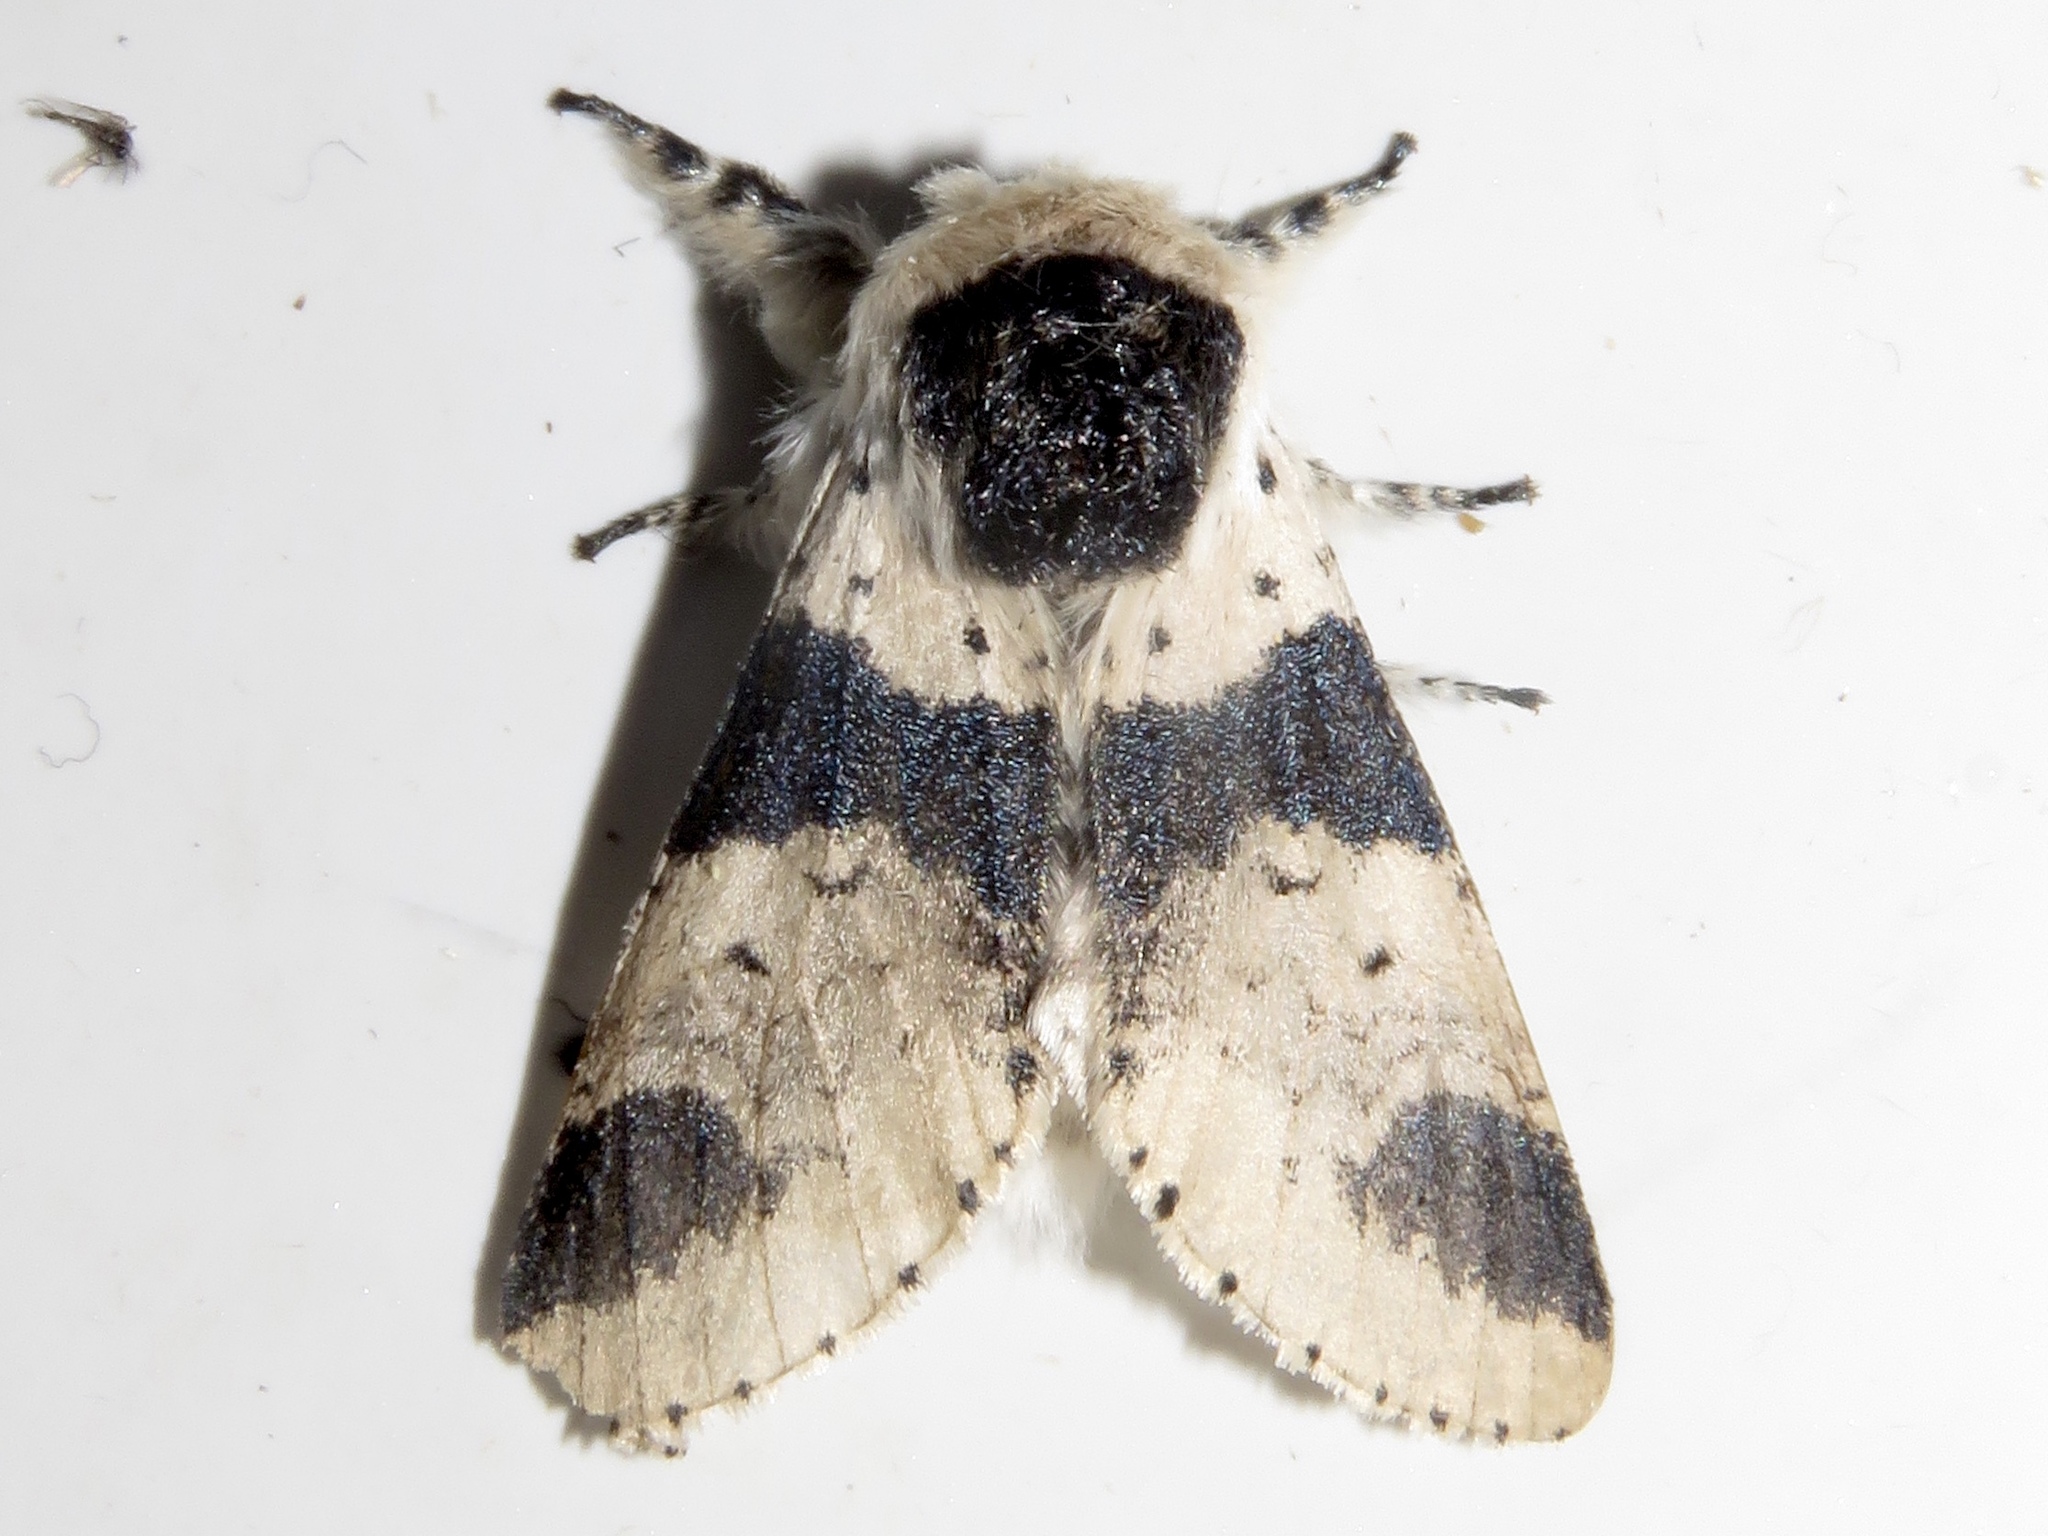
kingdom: Animalia
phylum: Arthropoda
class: Insecta
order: Lepidoptera
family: Notodontidae
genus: Furcula
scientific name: Furcula modesta
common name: Modest furcula moth
